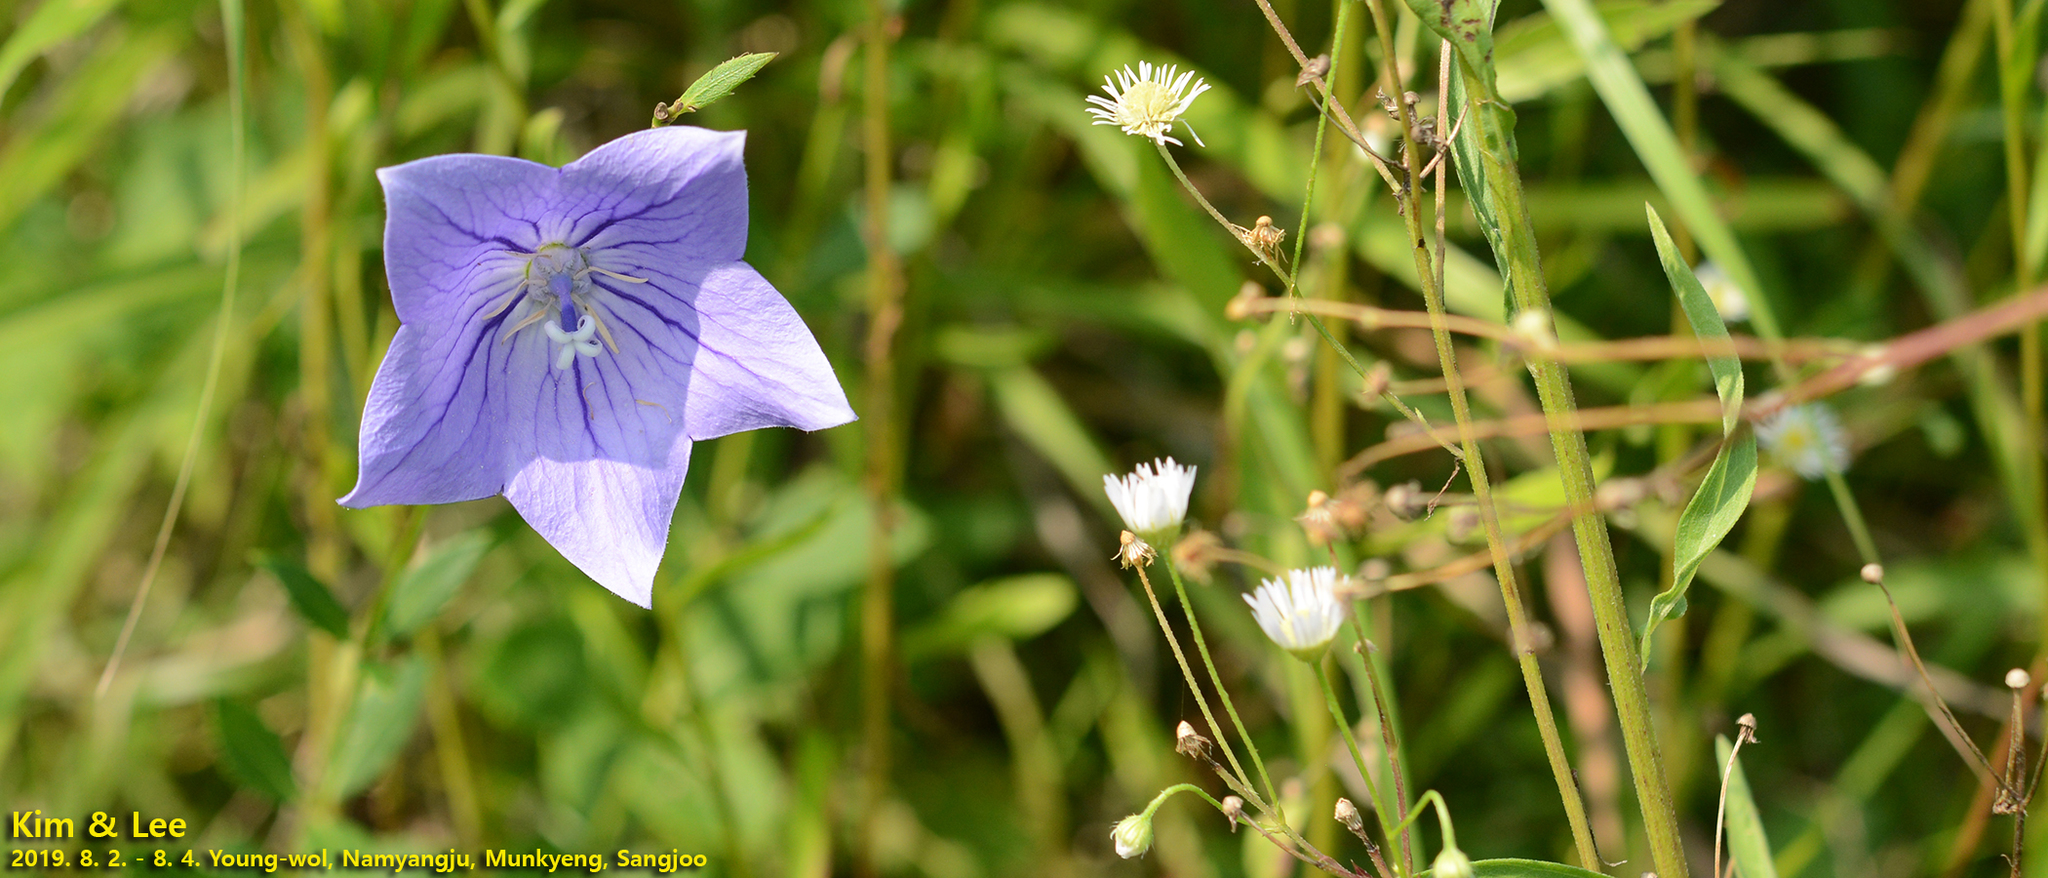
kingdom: Plantae
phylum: Tracheophyta
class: Magnoliopsida
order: Asterales
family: Campanulaceae
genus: Platycodon
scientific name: Platycodon grandiflorus
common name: Balloon-flower
